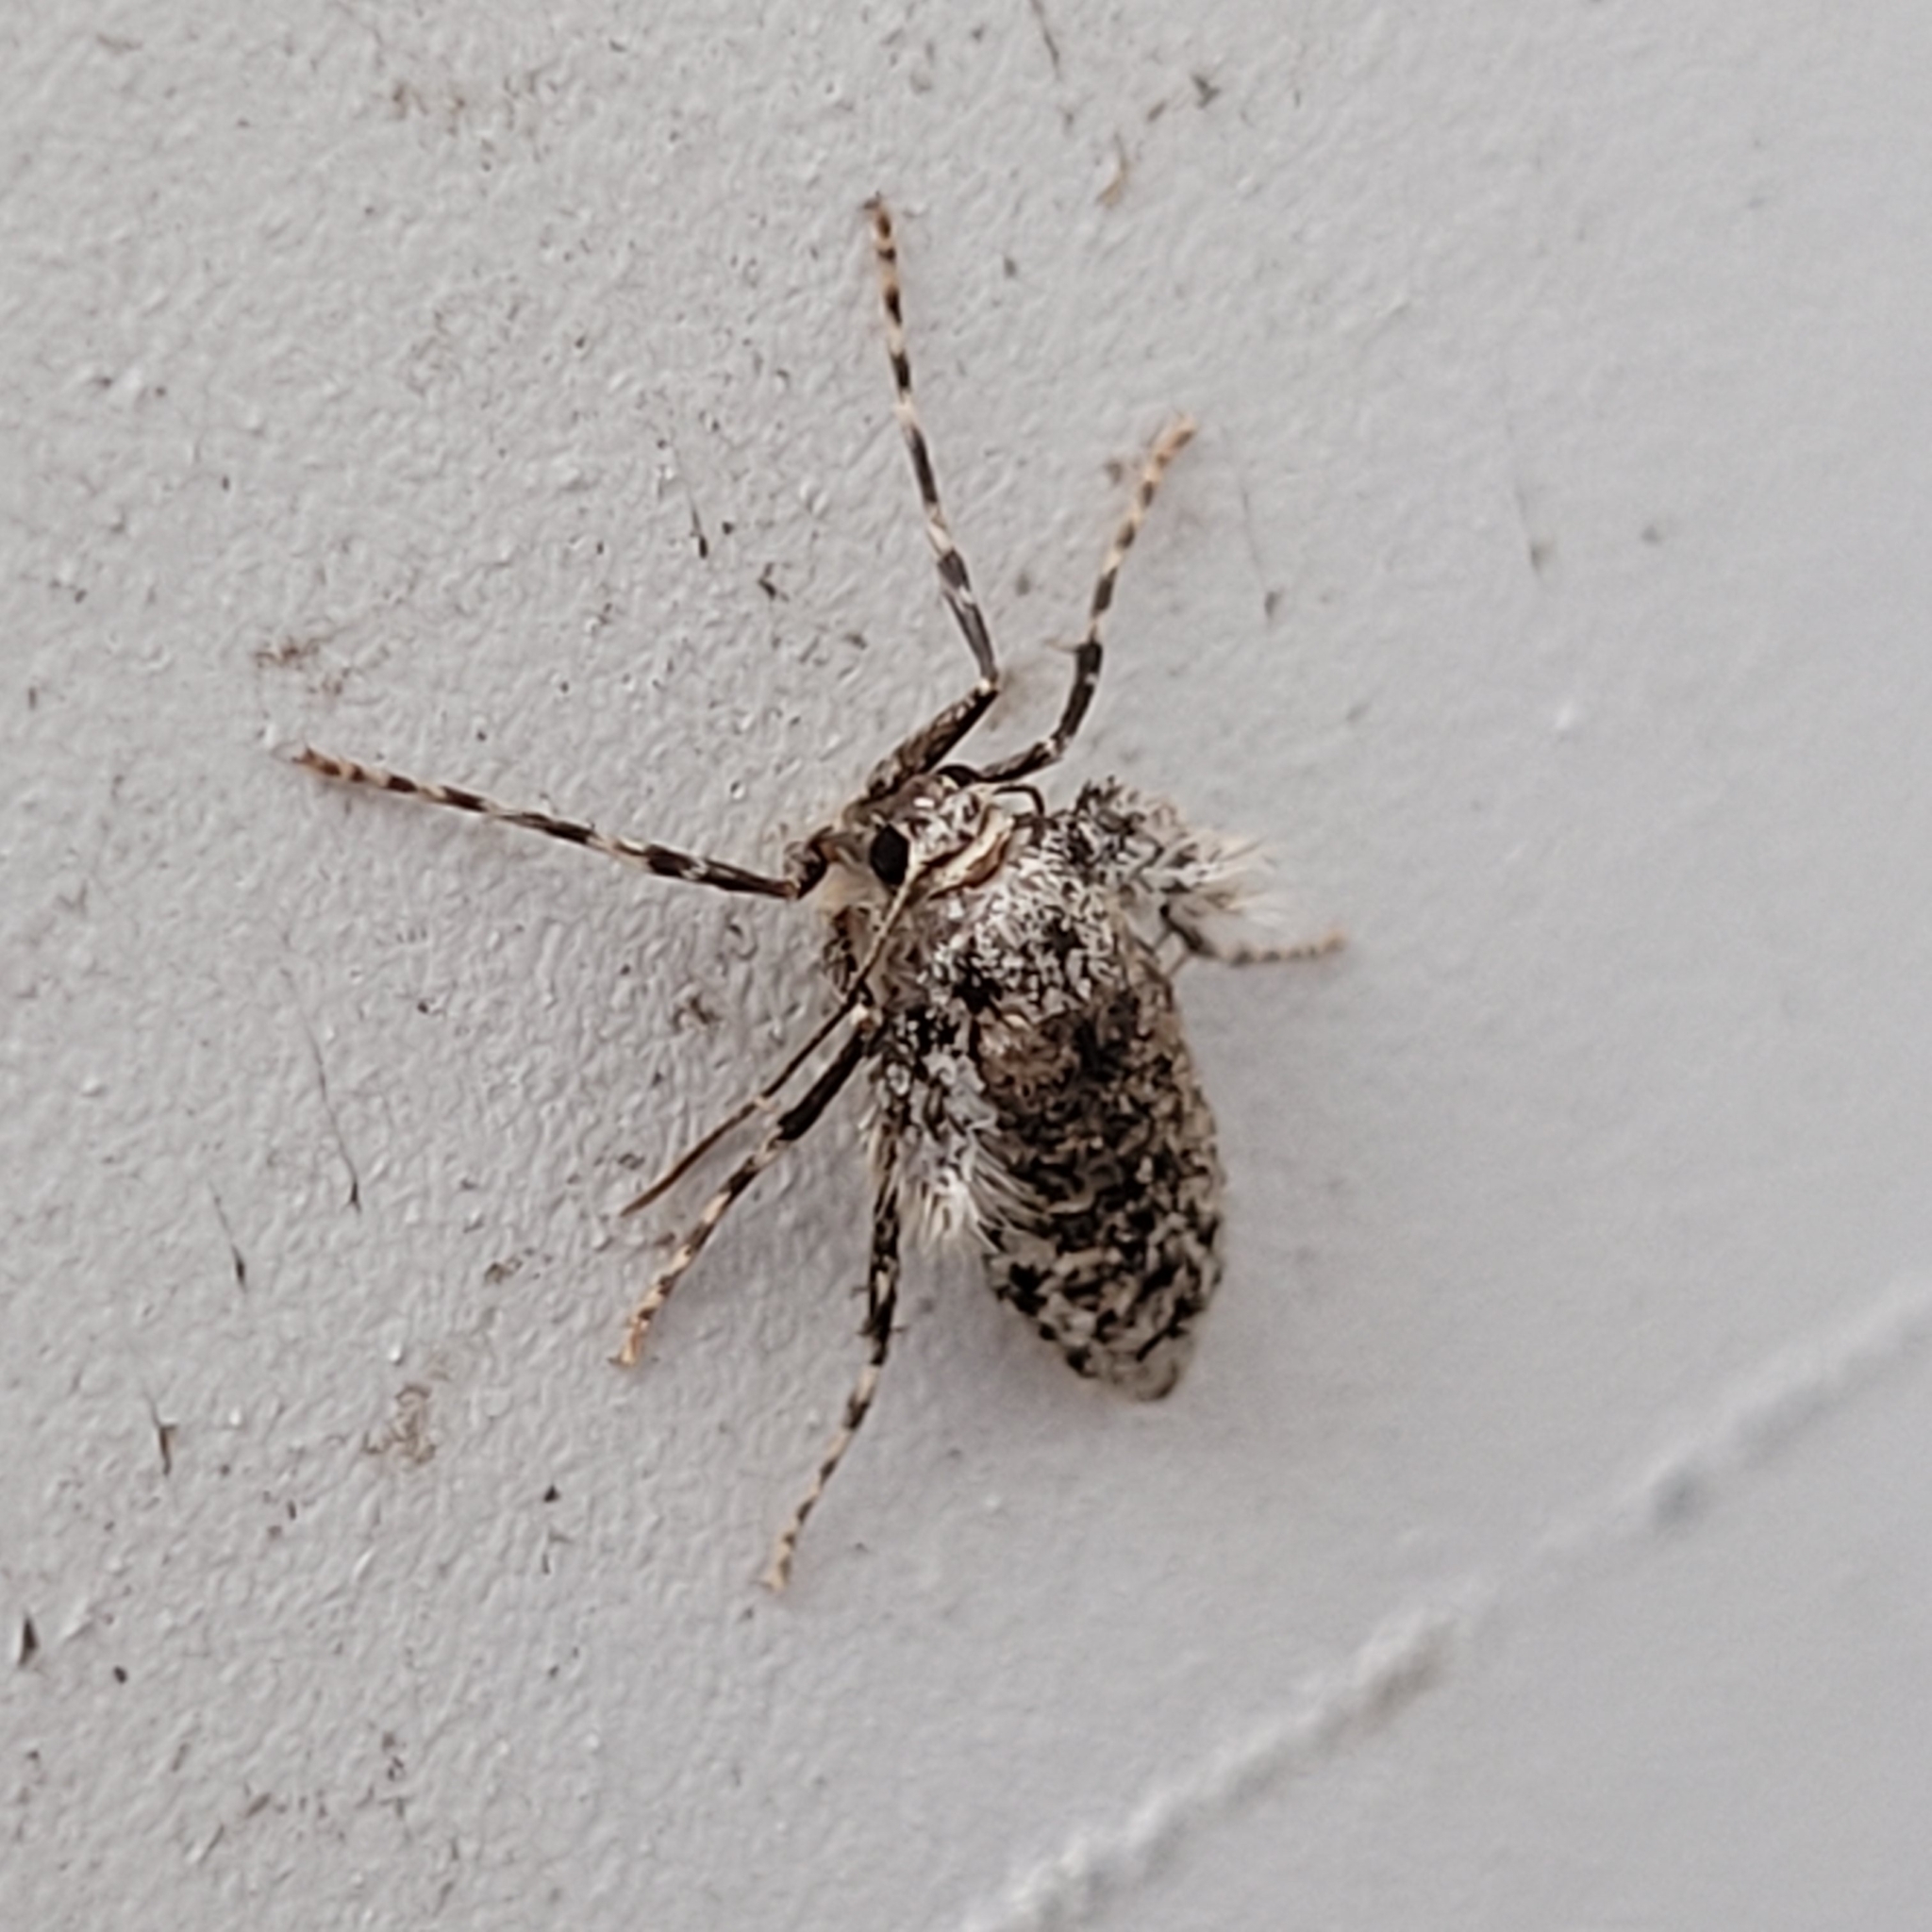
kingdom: Animalia
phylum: Arthropoda
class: Insecta
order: Lepidoptera
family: Geometridae
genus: Operophtera
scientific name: Operophtera brumata
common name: Winter moth
